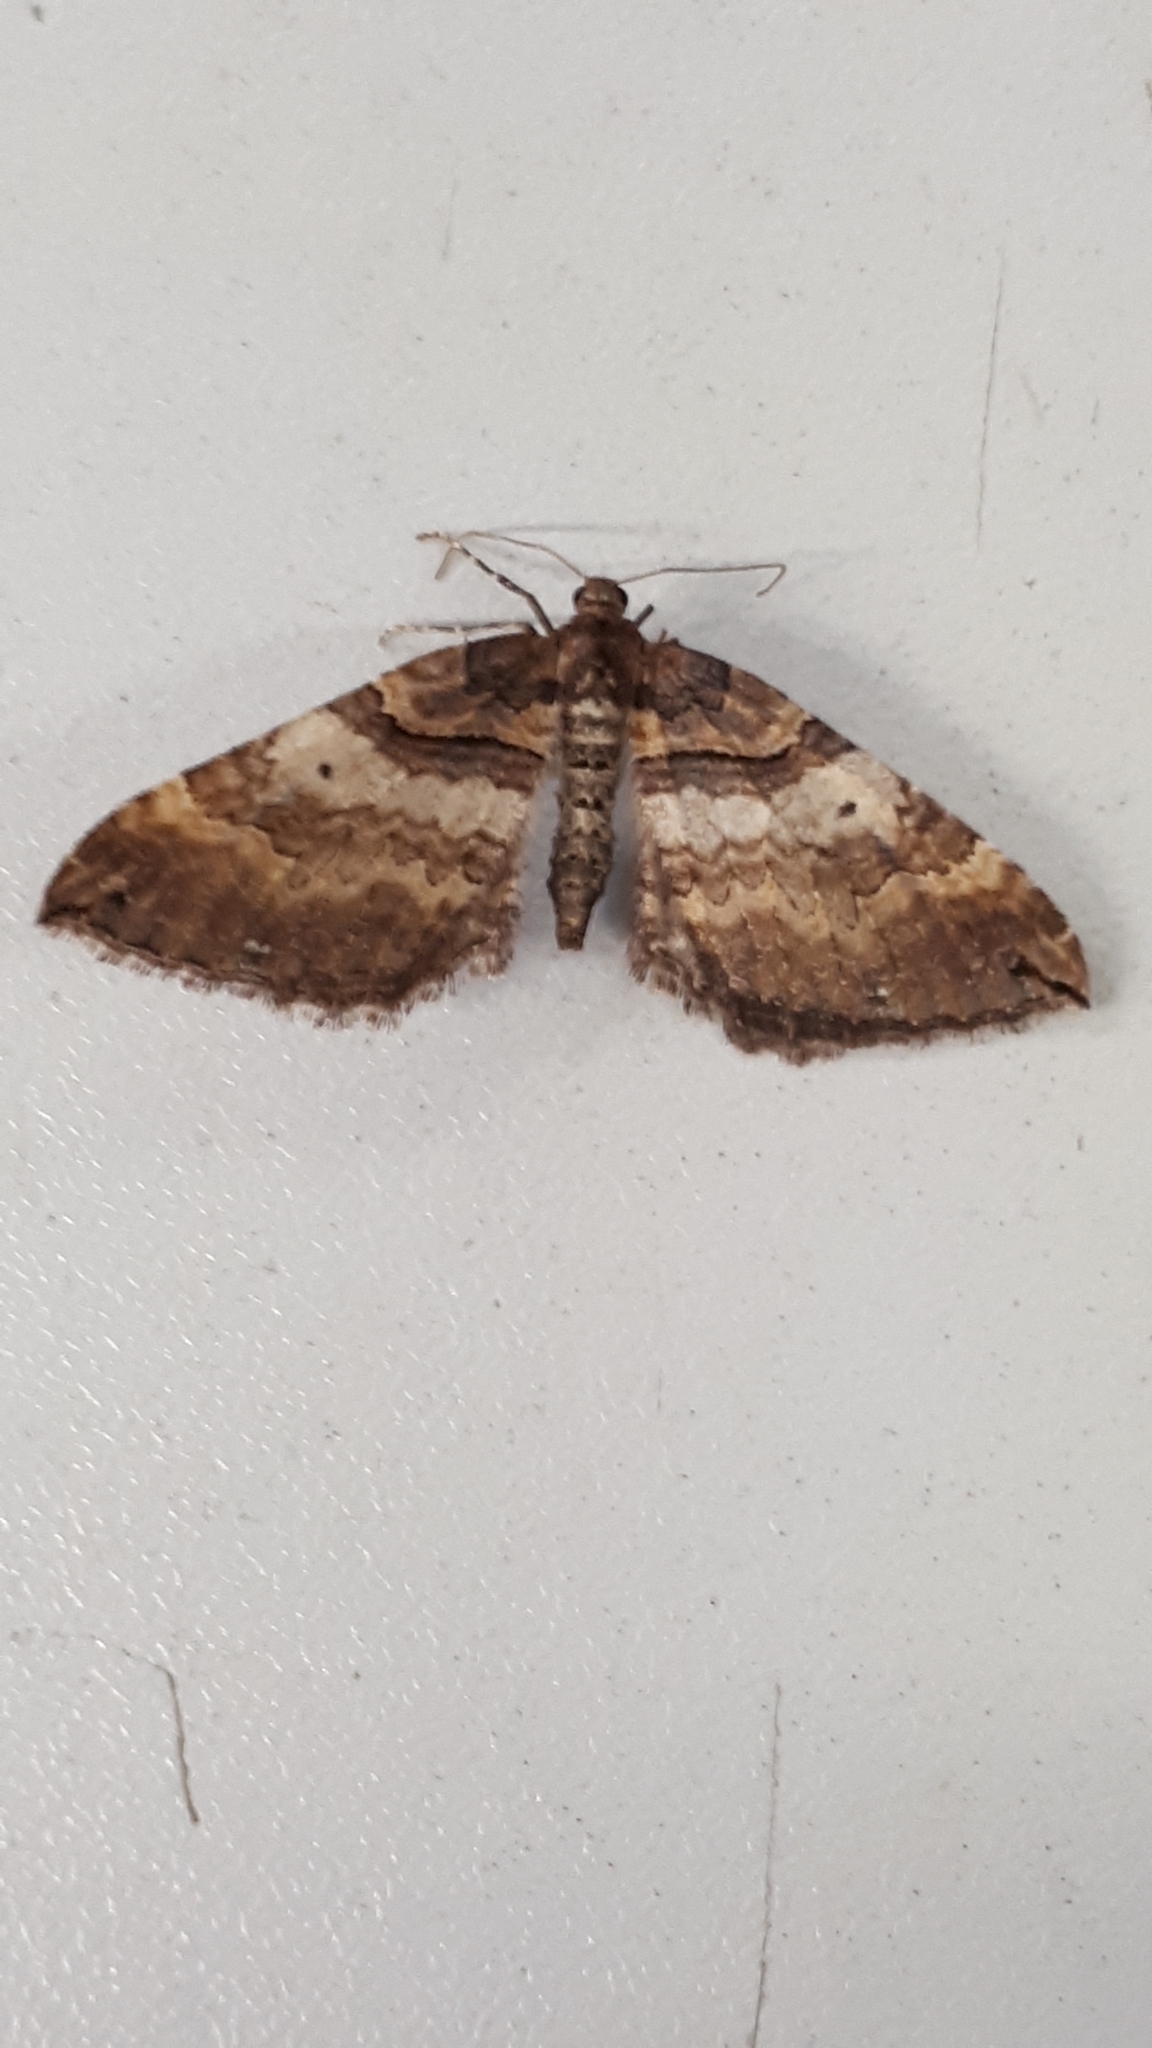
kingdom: Animalia
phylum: Arthropoda
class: Insecta
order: Lepidoptera
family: Geometridae
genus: Anticlea
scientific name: Anticlea badiata
